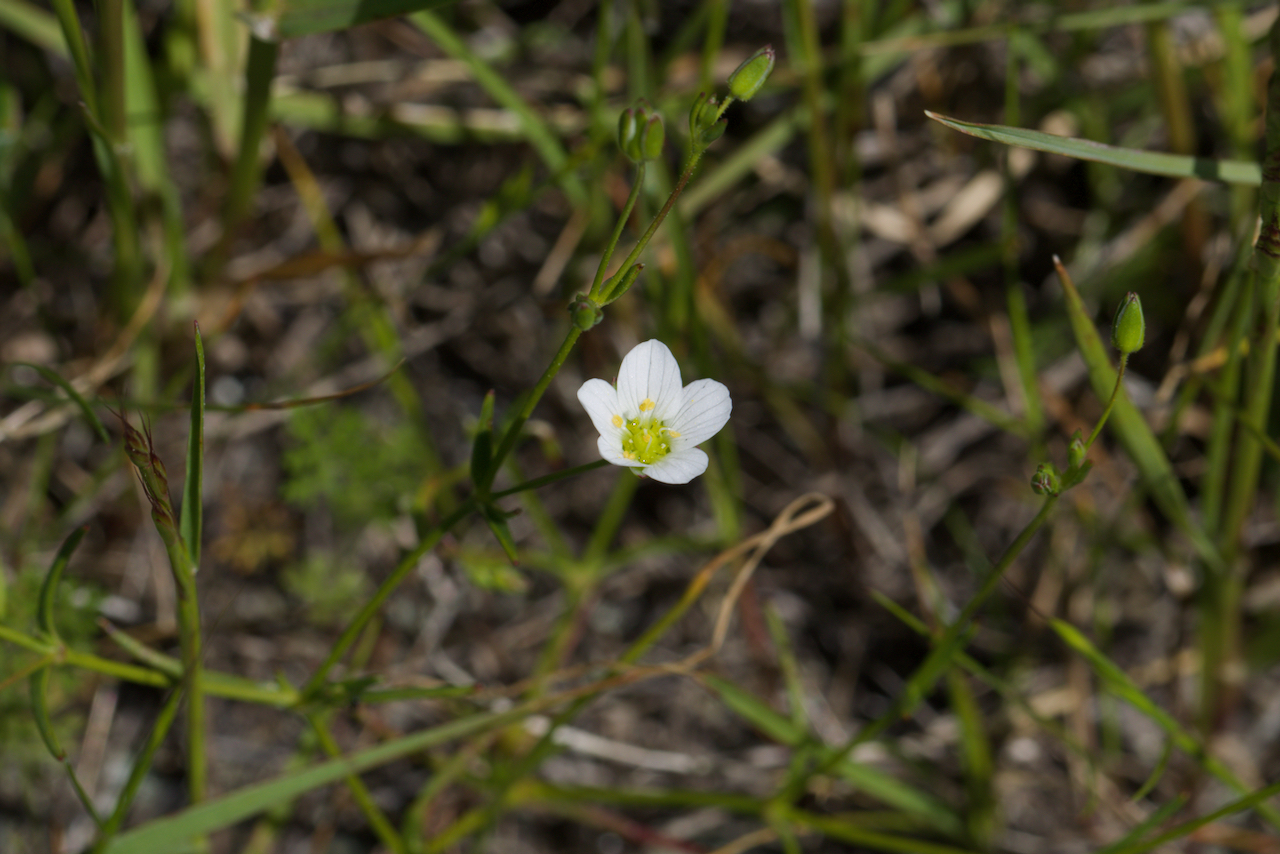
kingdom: Plantae
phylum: Tracheophyta
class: Magnoliopsida
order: Caryophyllales
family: Caryophyllaceae
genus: Sabulina
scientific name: Sabulina douglasii
